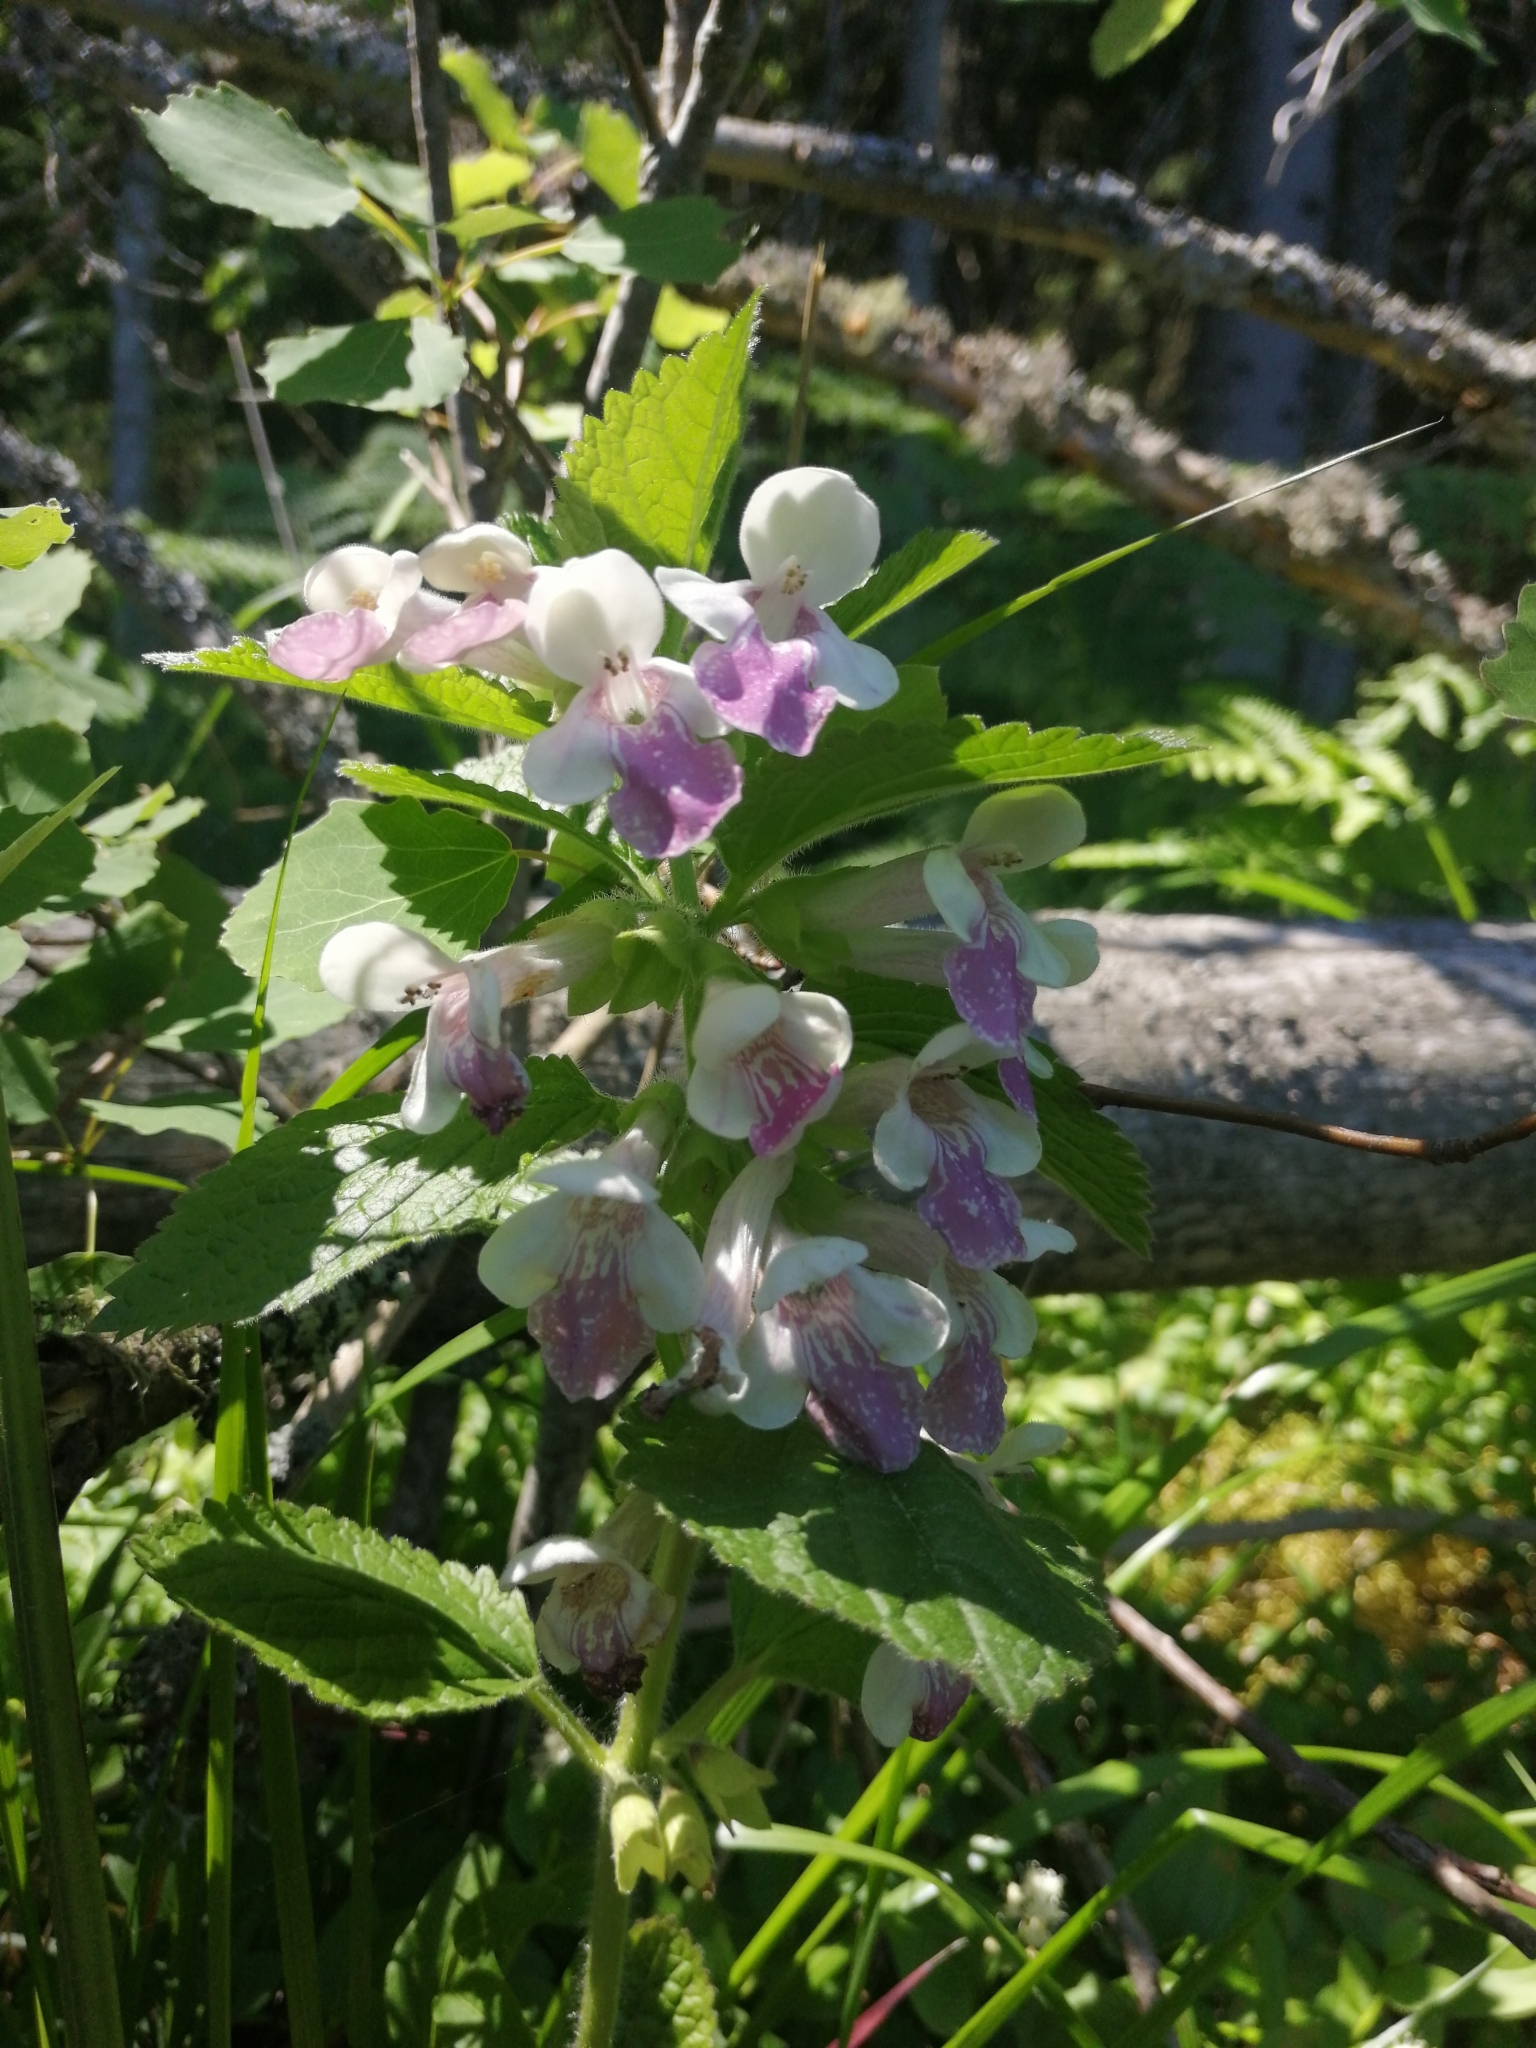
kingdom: Plantae
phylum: Tracheophyta
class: Magnoliopsida
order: Lamiales
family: Lamiaceae
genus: Melittis
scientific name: Melittis melissophyllum
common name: Bastard balm
